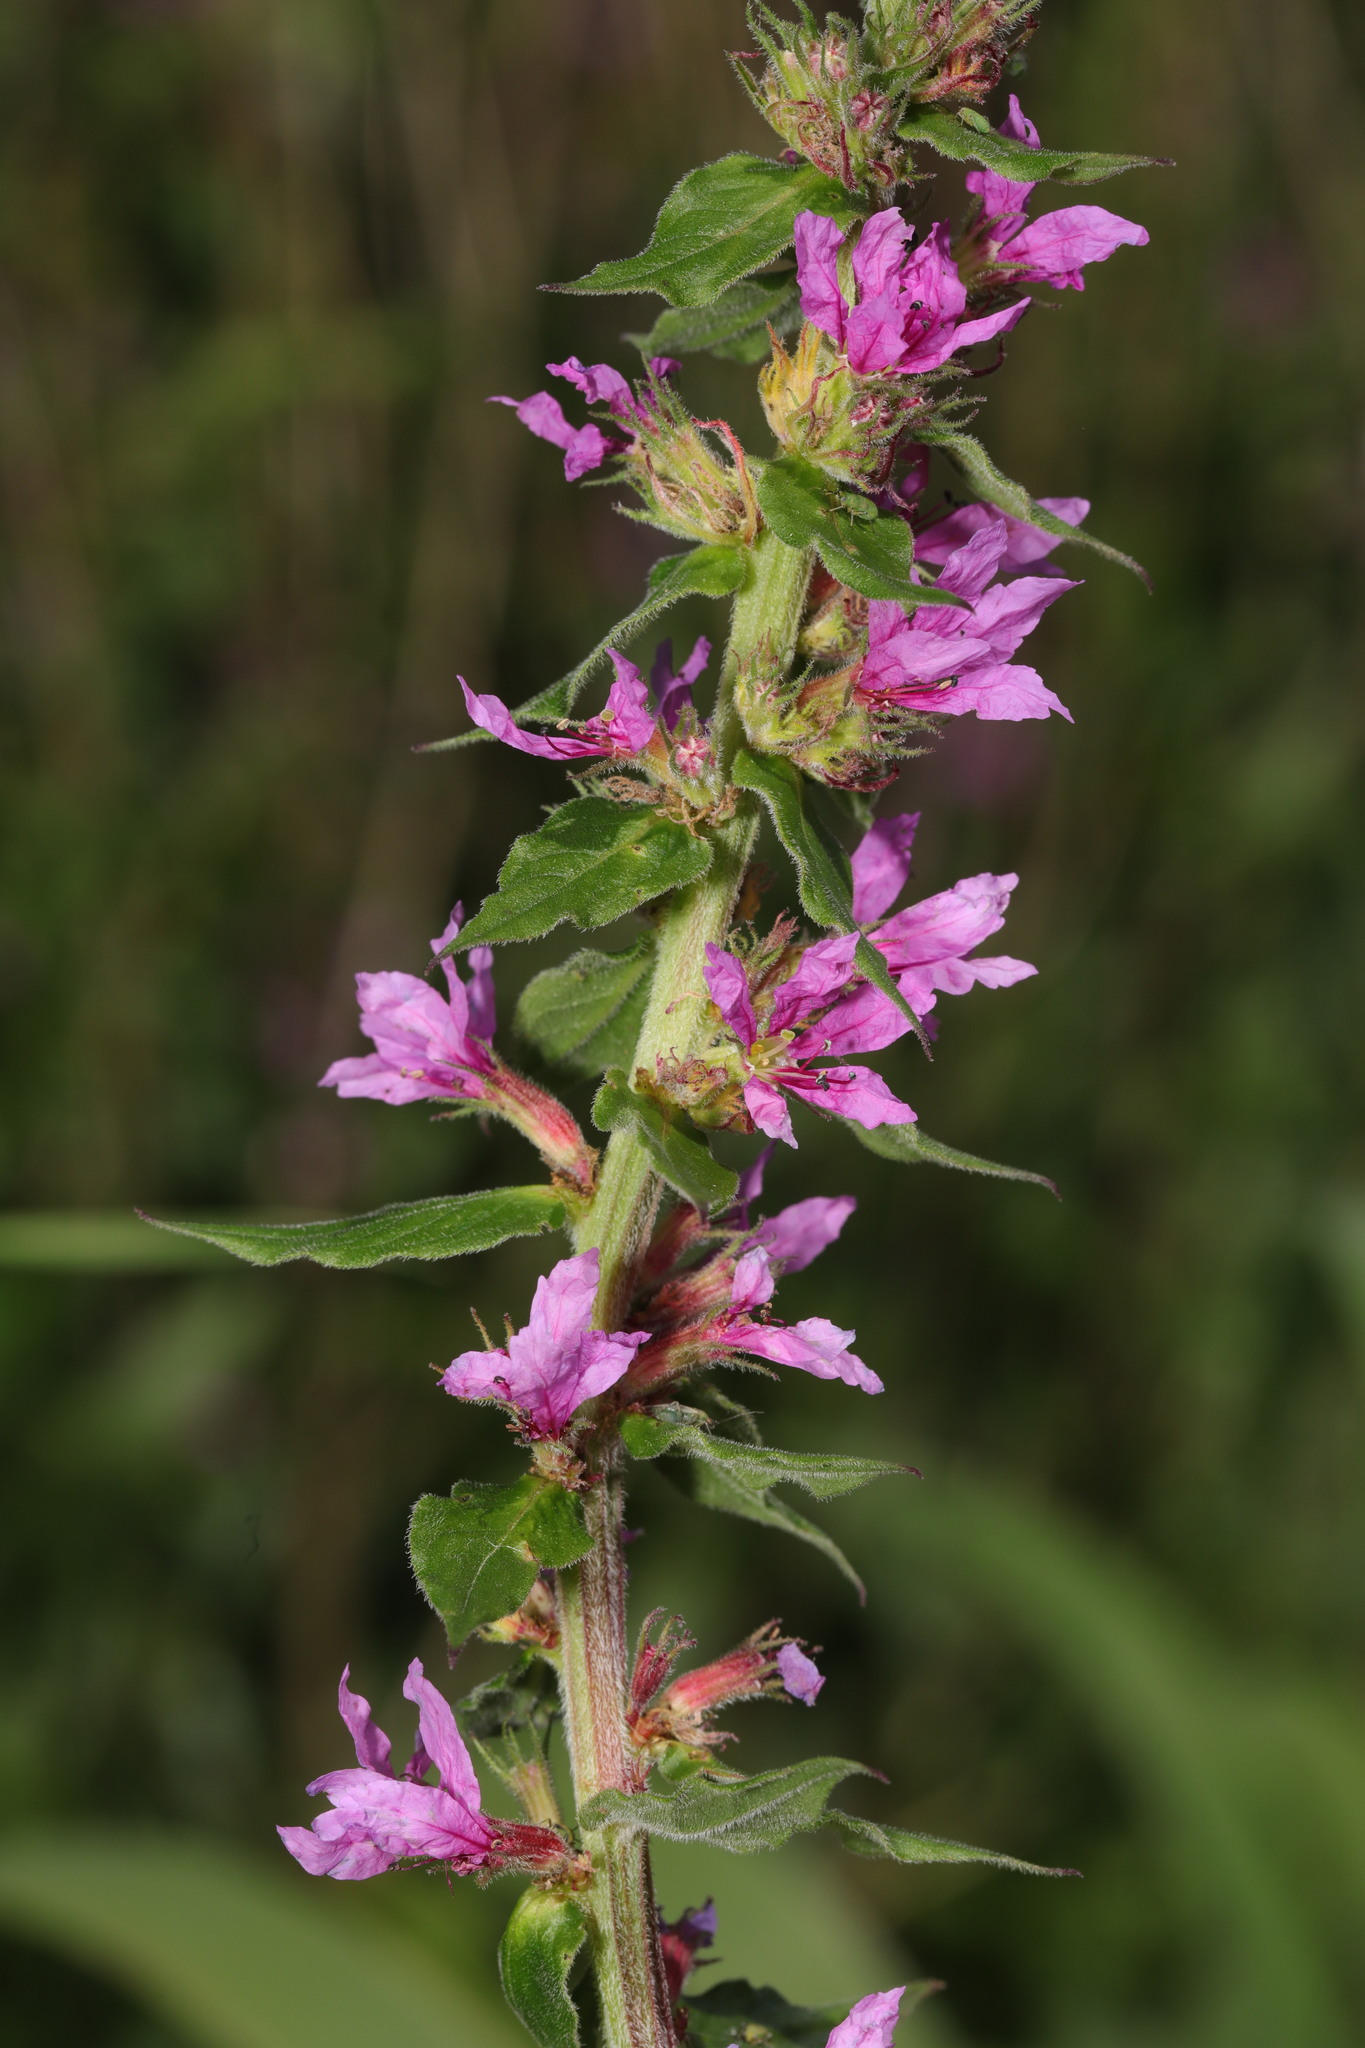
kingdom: Plantae
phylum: Tracheophyta
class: Magnoliopsida
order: Myrtales
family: Lythraceae
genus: Lythrum
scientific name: Lythrum salicaria
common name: Purple loosestrife
